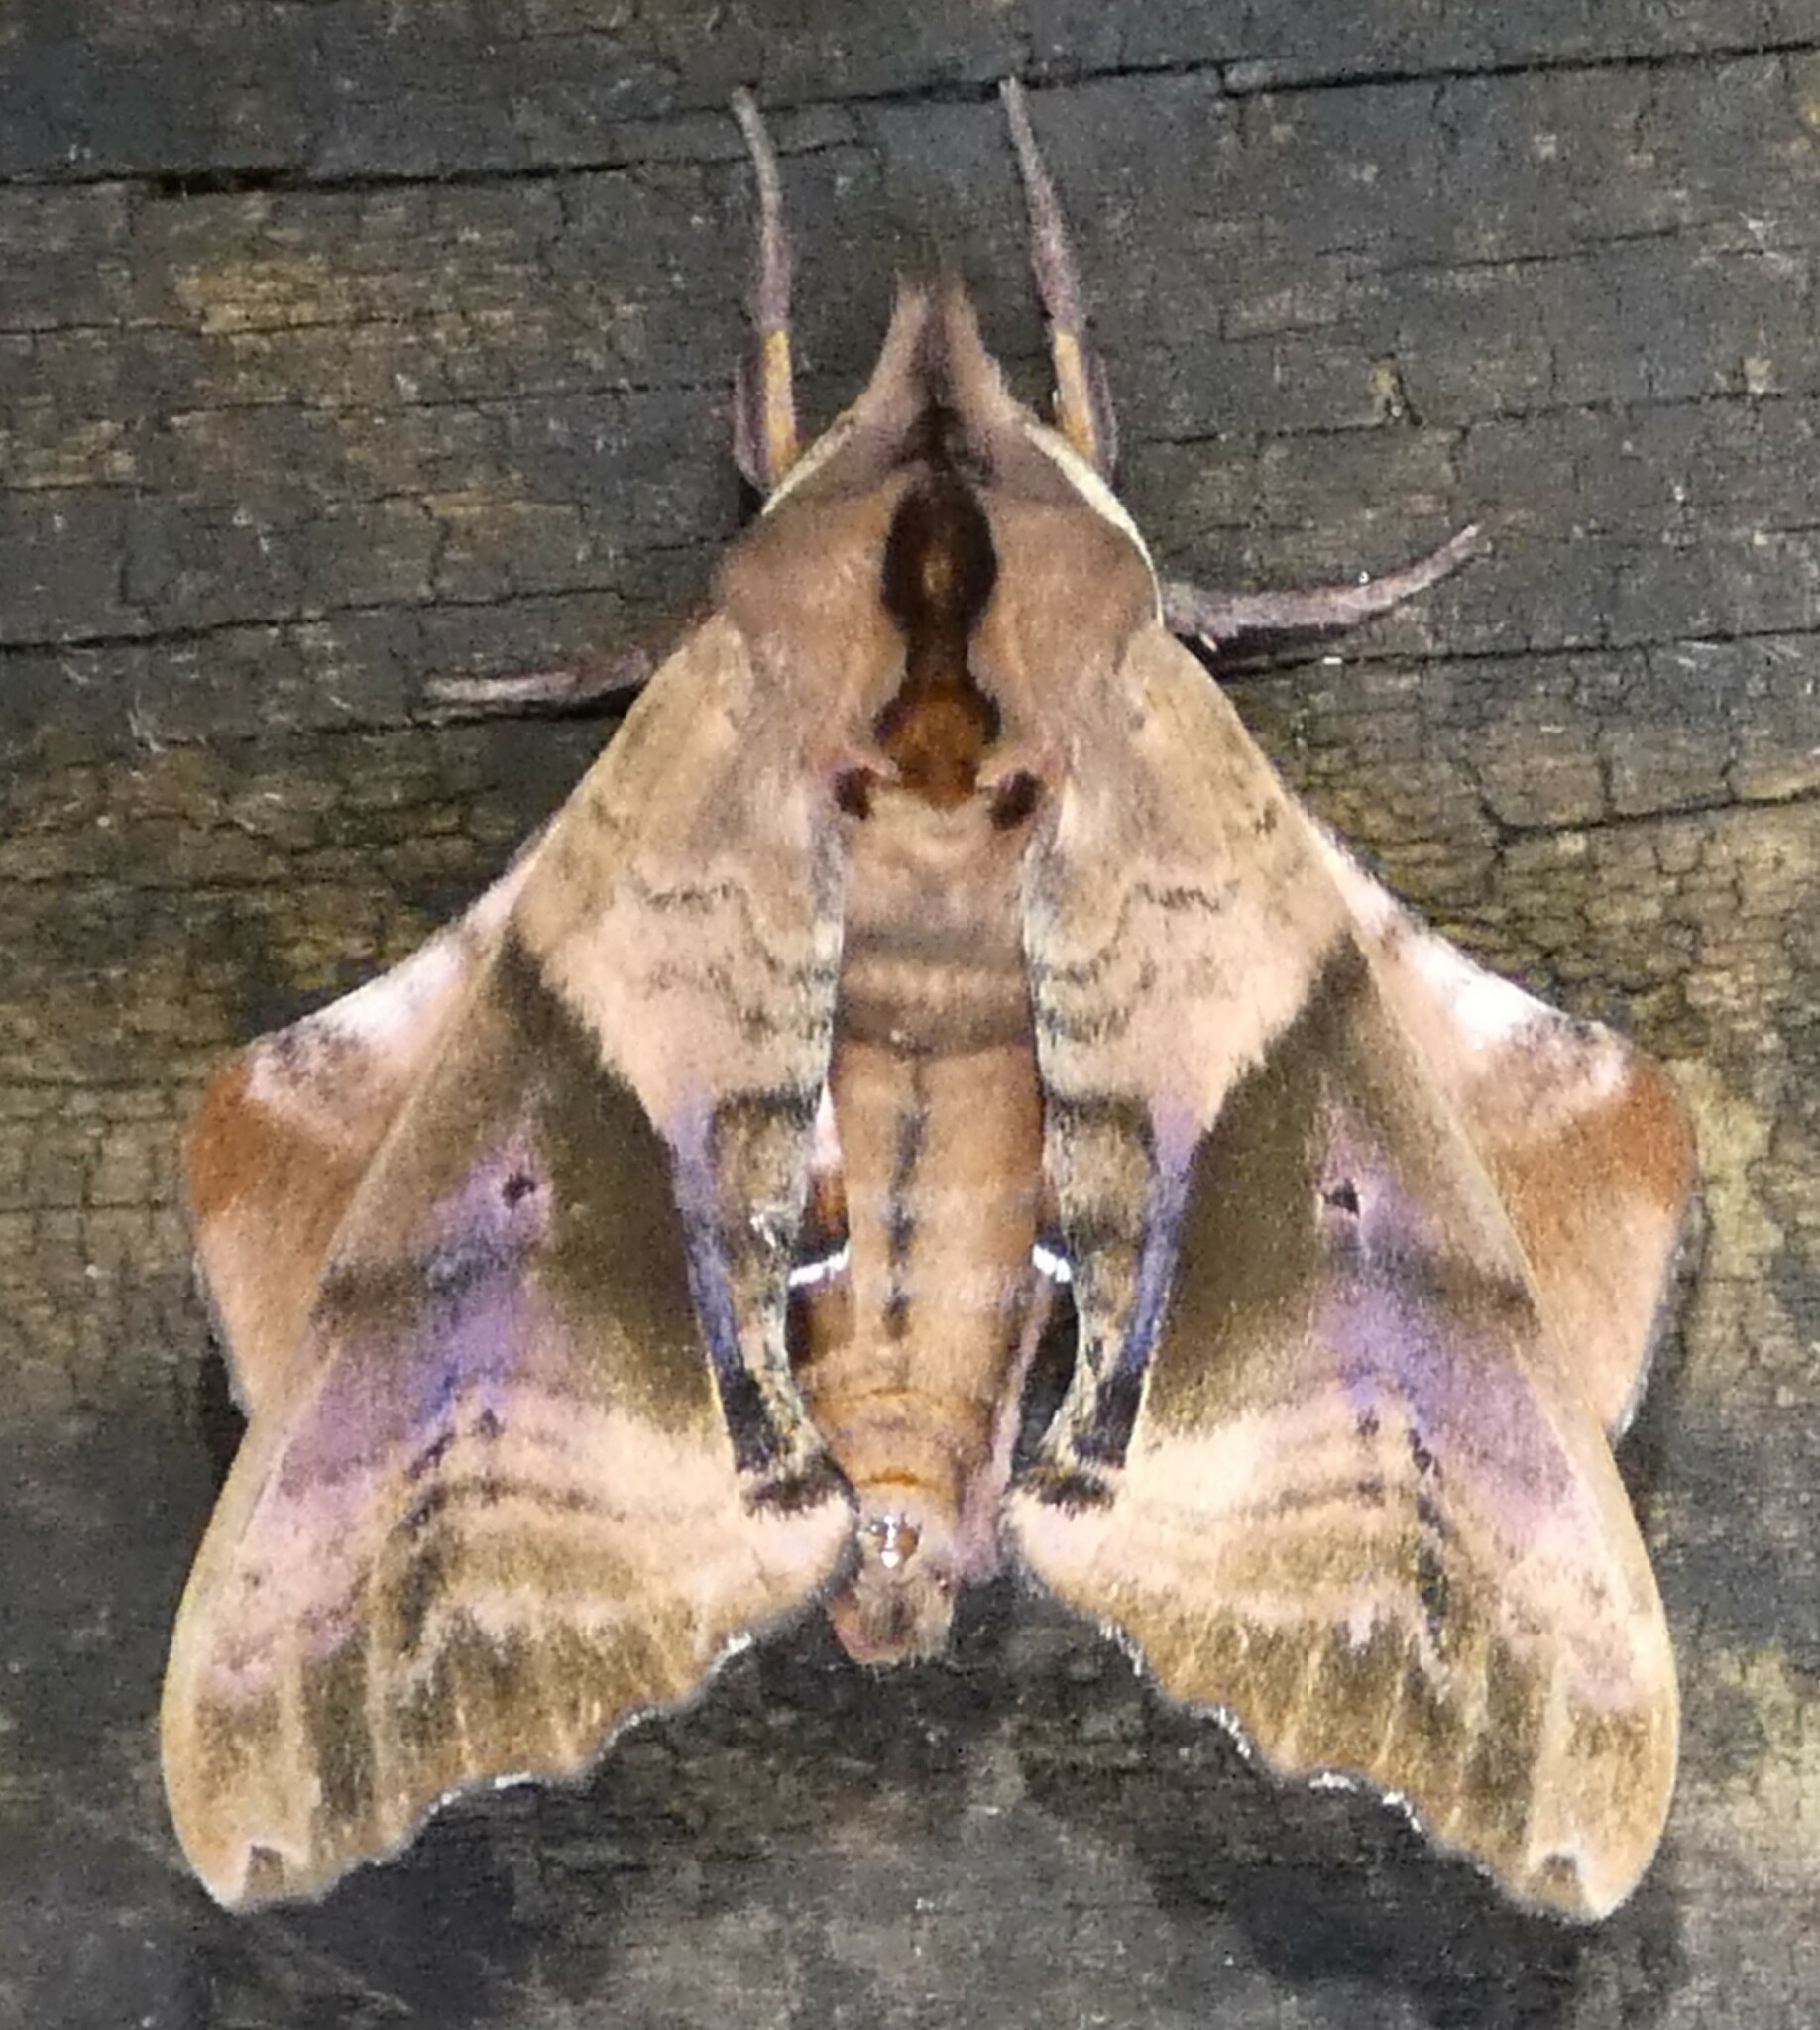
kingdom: Animalia
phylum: Arthropoda
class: Insecta
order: Lepidoptera
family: Sphingidae
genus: Paonias
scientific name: Paonias excaecata
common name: Blind-eyed sphinx
